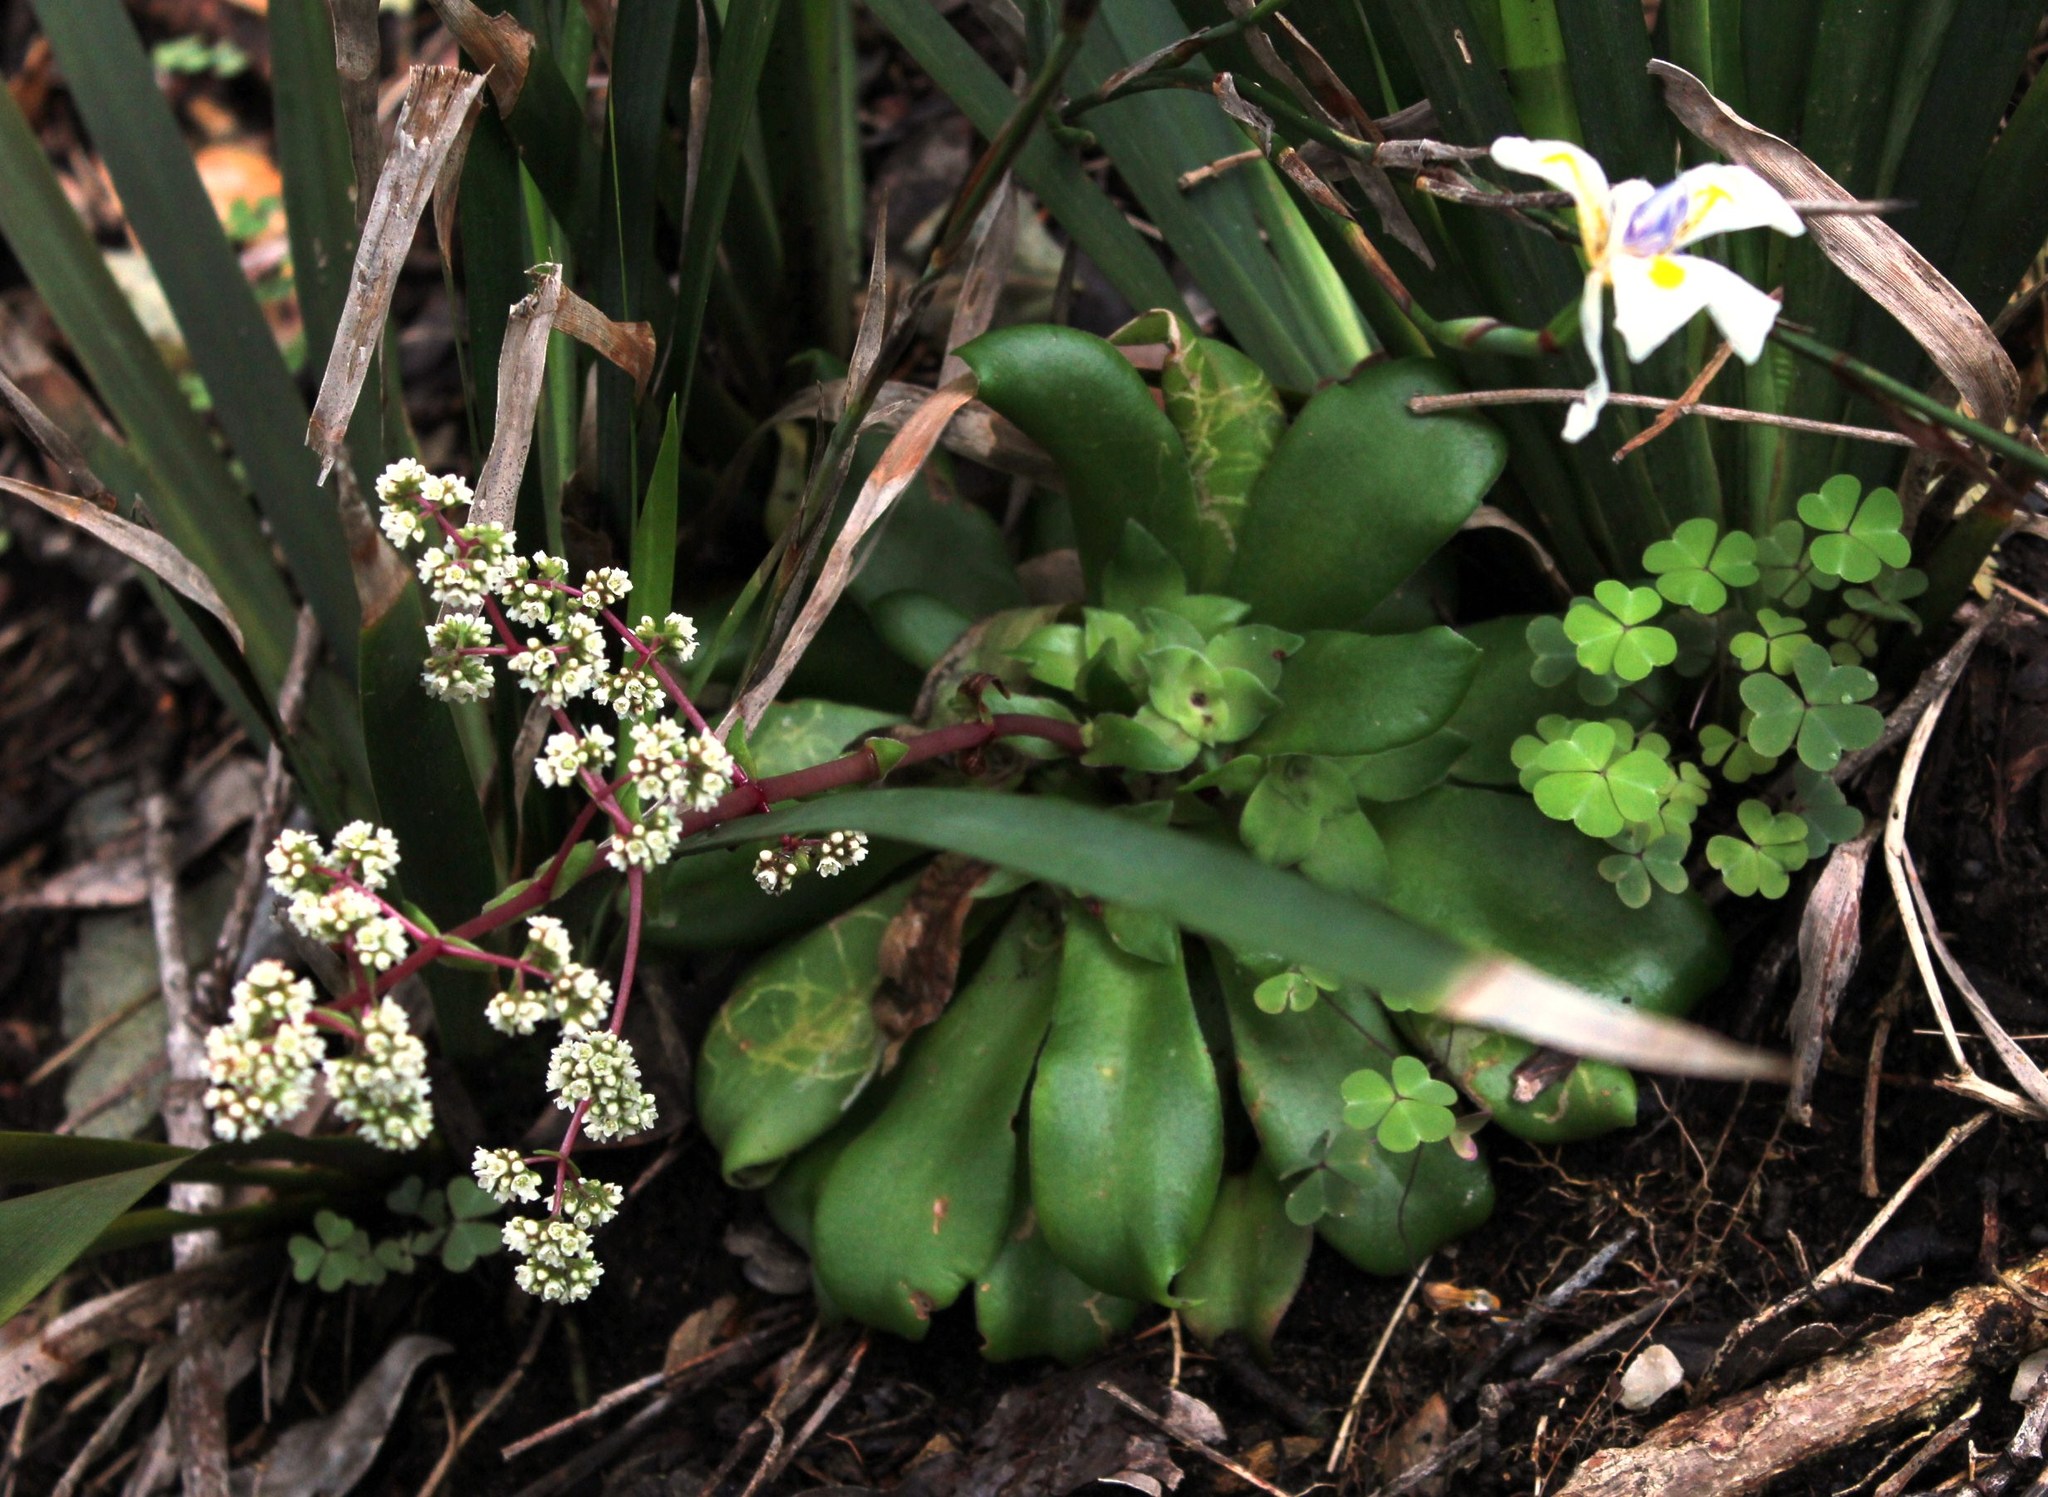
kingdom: Plantae
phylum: Tracheophyta
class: Magnoliopsida
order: Saxifragales
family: Crassulaceae
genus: Crassula
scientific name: Crassula orbicularis
